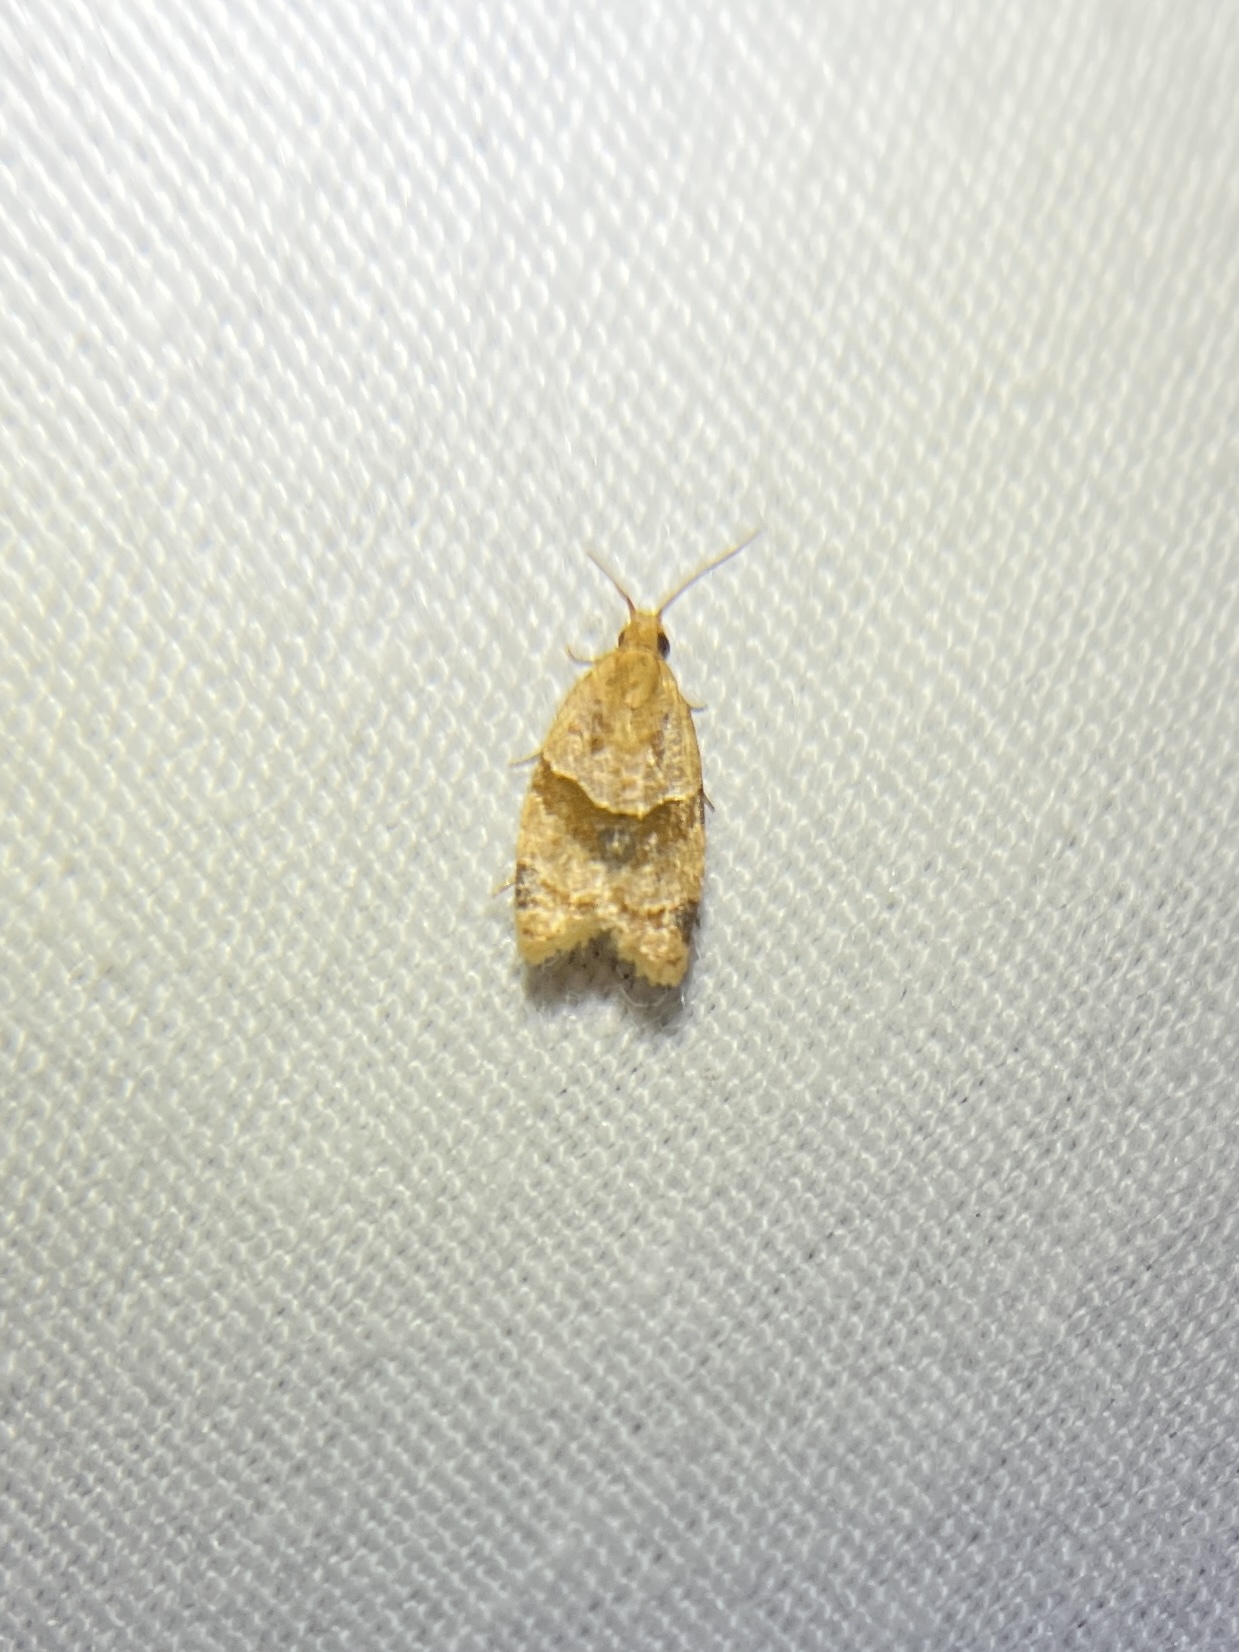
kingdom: Animalia
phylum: Arthropoda
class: Insecta
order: Lepidoptera
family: Tortricidae
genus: Clepsis
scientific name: Clepsis peritana
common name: Garden tortrix
